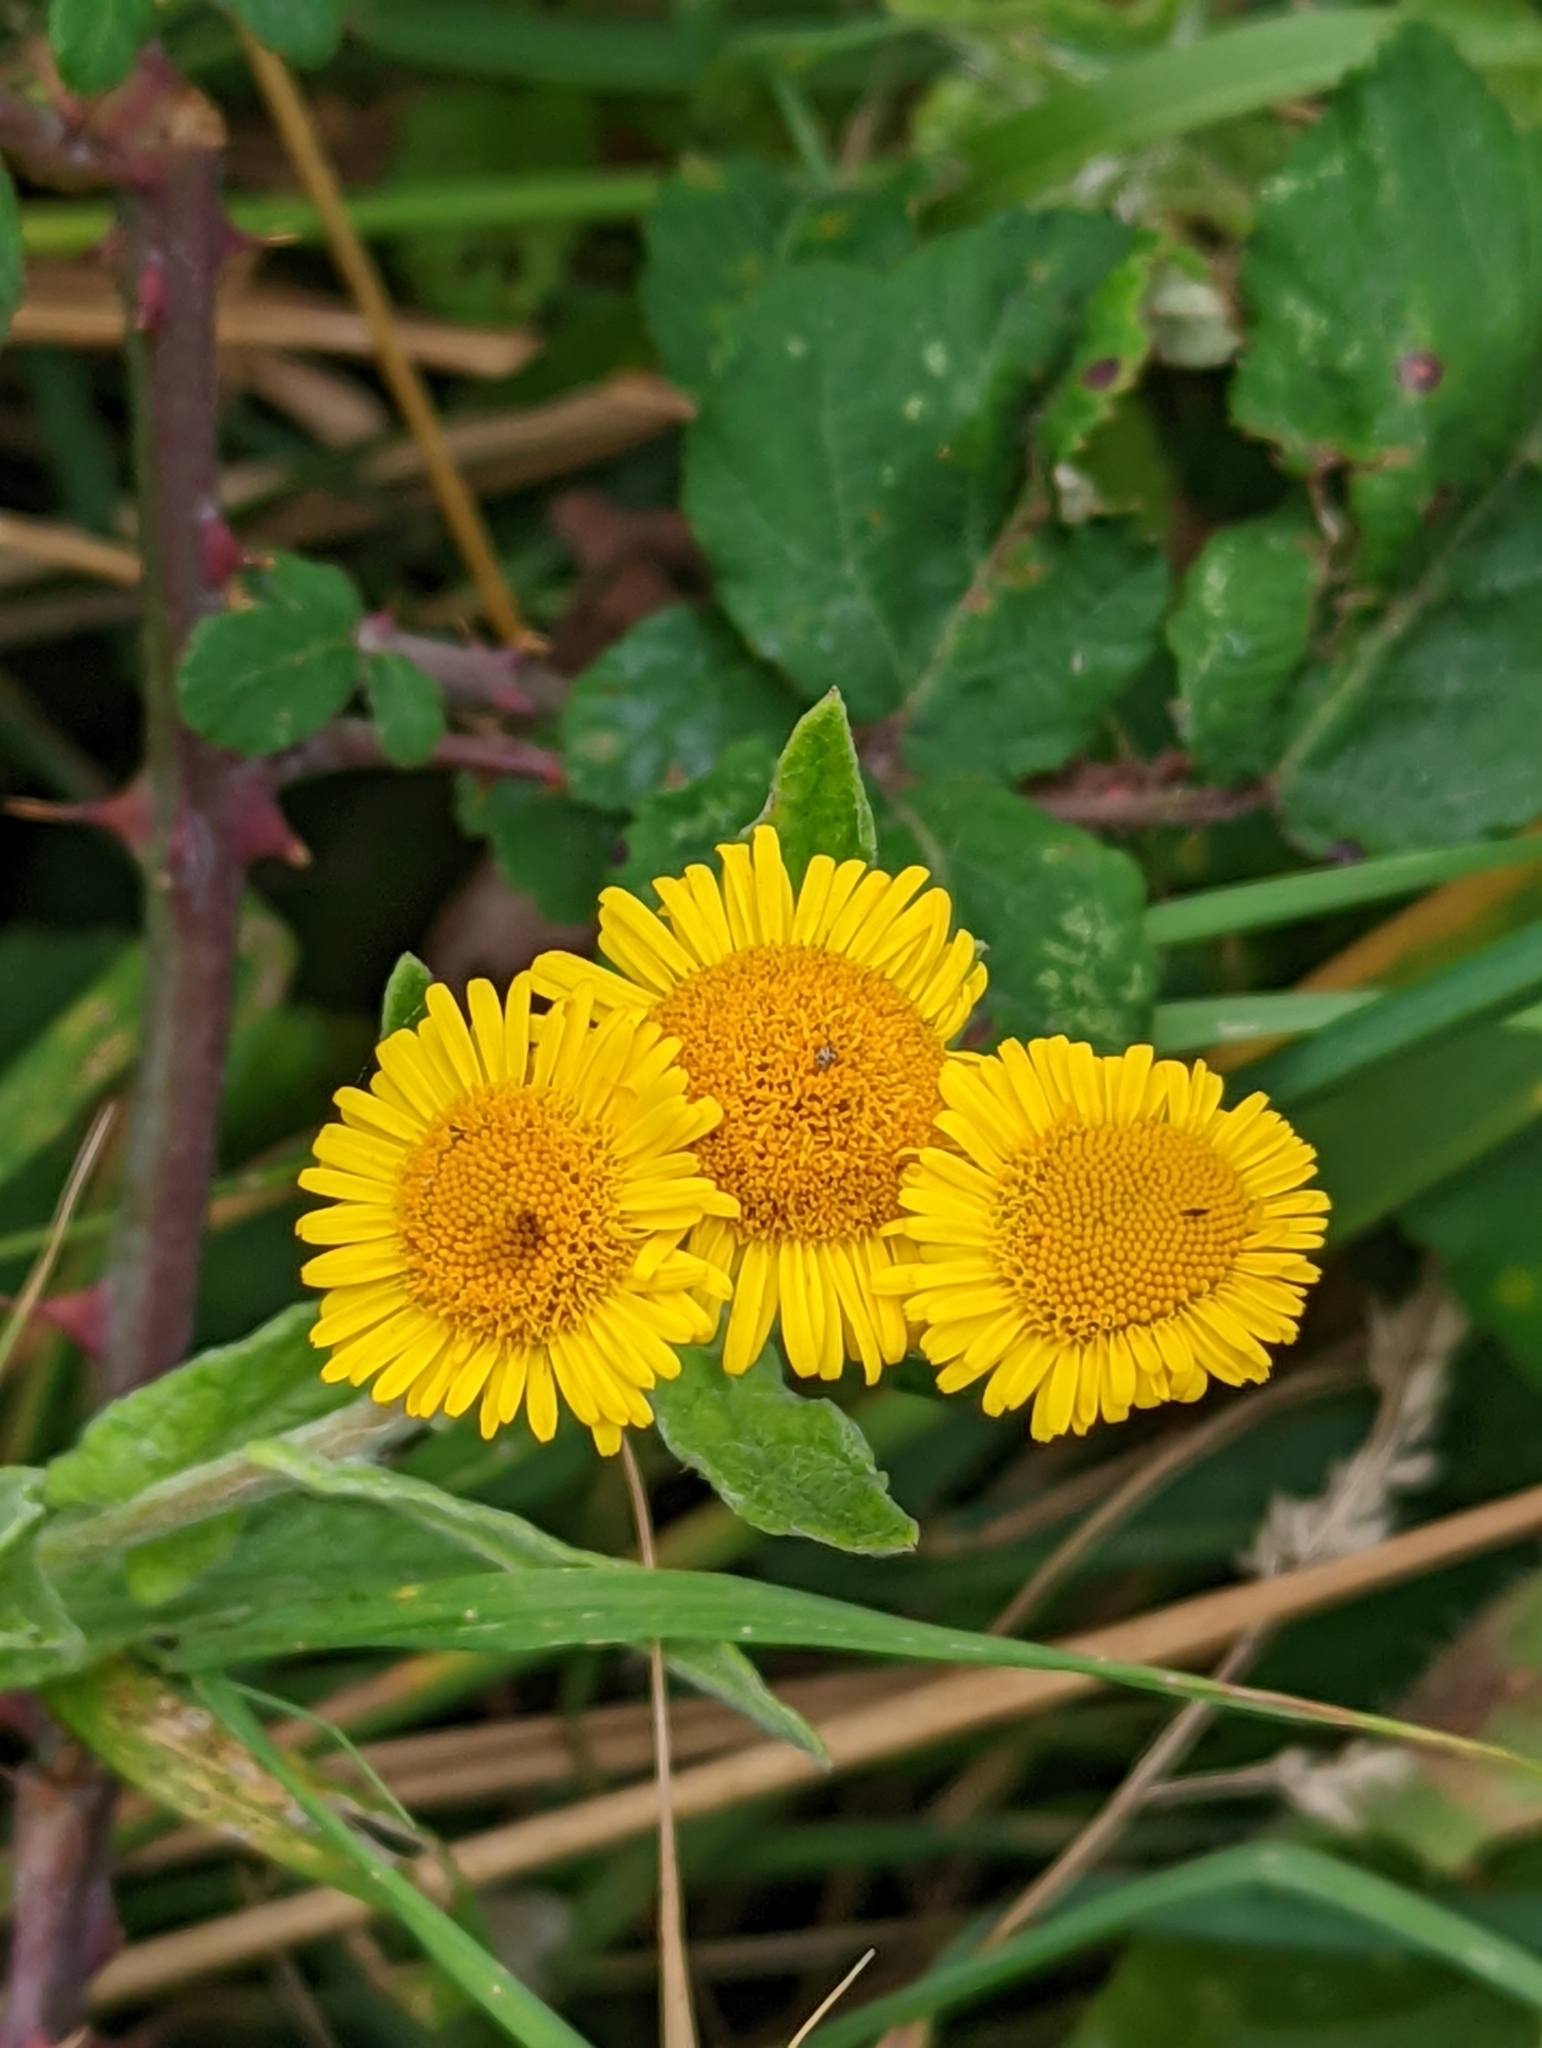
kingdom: Plantae
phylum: Tracheophyta
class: Magnoliopsida
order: Asterales
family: Asteraceae
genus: Pulicaria
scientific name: Pulicaria dysenterica
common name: Common fleabane
